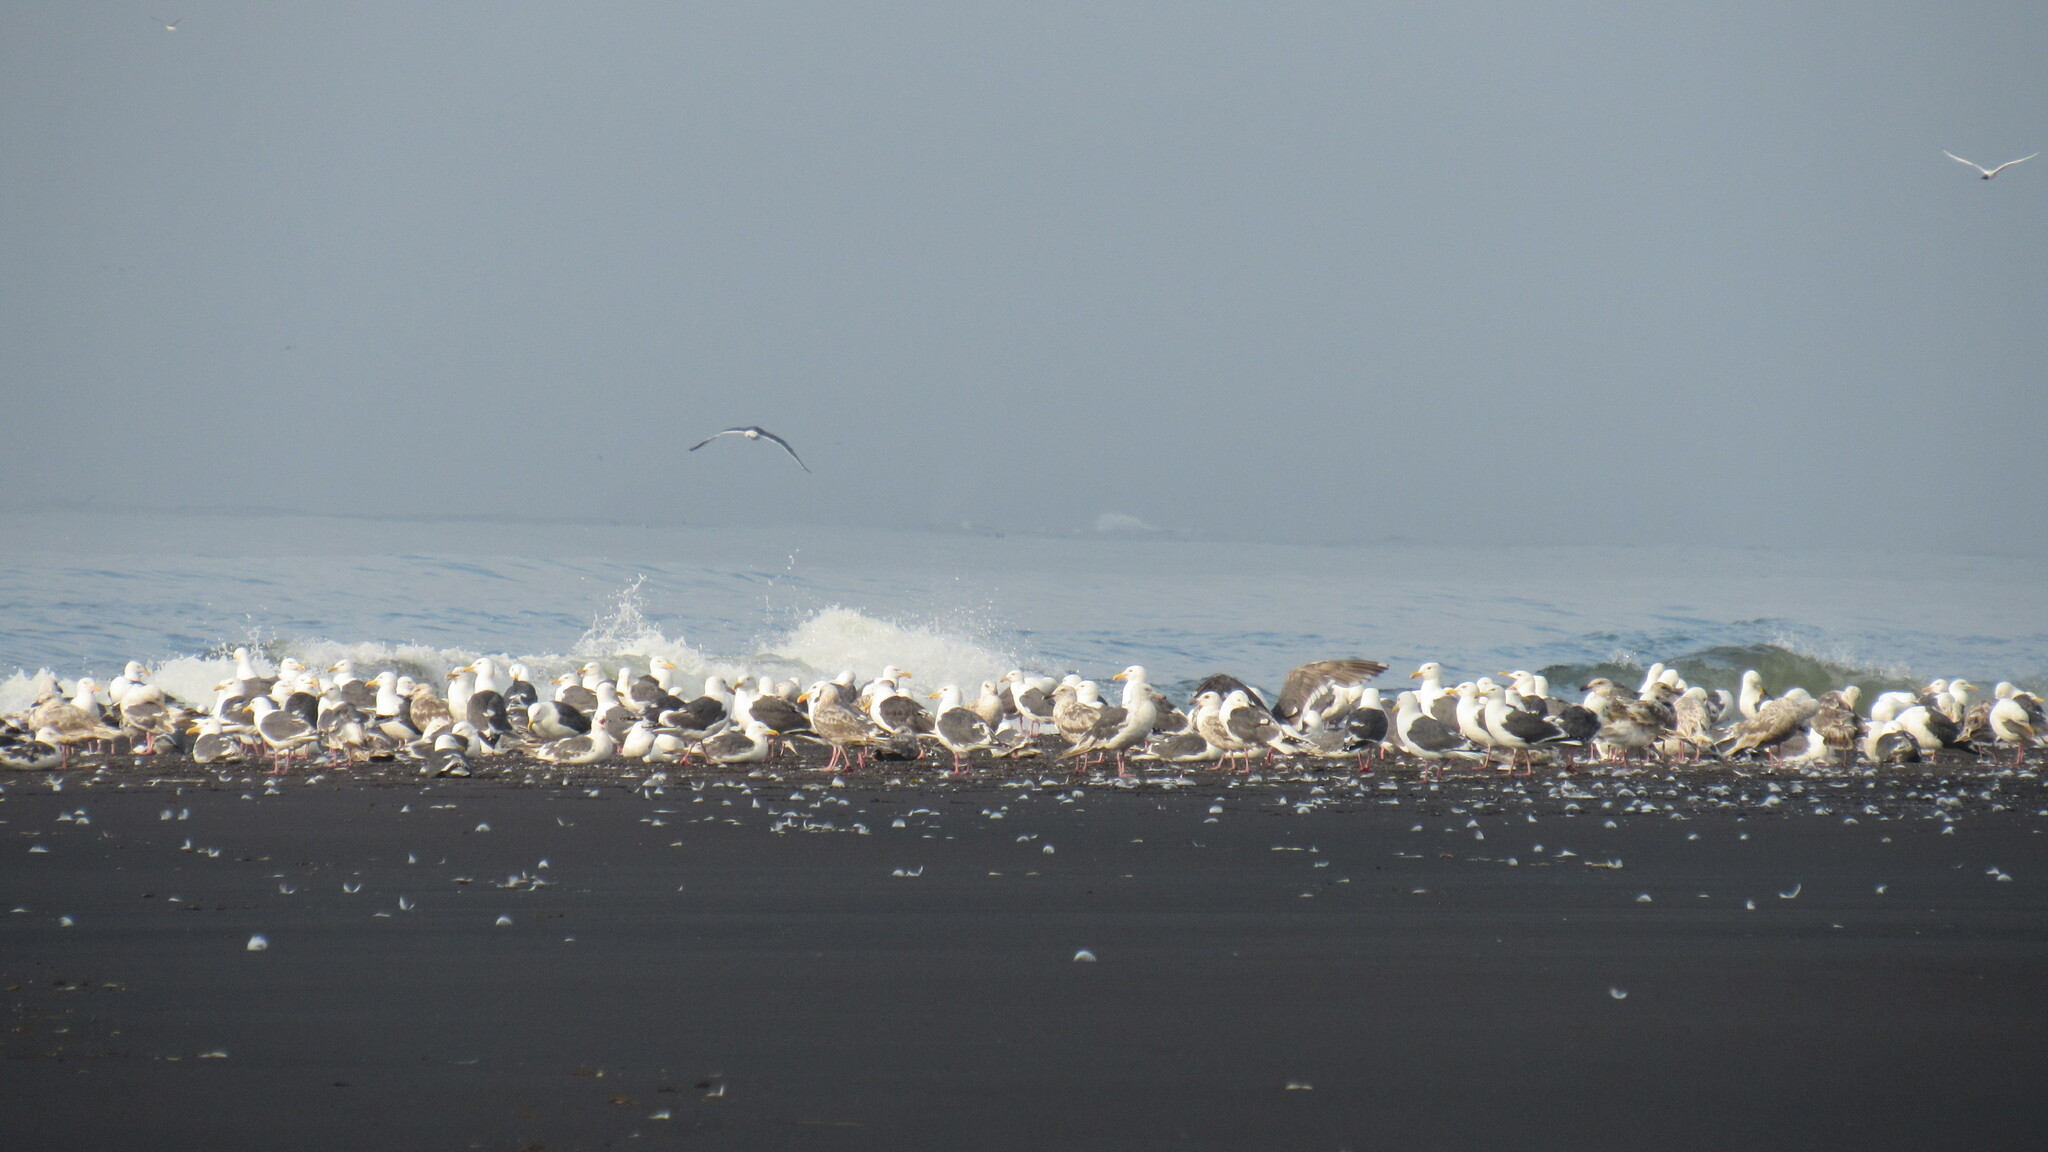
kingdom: Animalia
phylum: Chordata
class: Aves
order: Charadriiformes
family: Laridae
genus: Larus
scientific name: Larus schistisagus
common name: Slaty-backed gull
